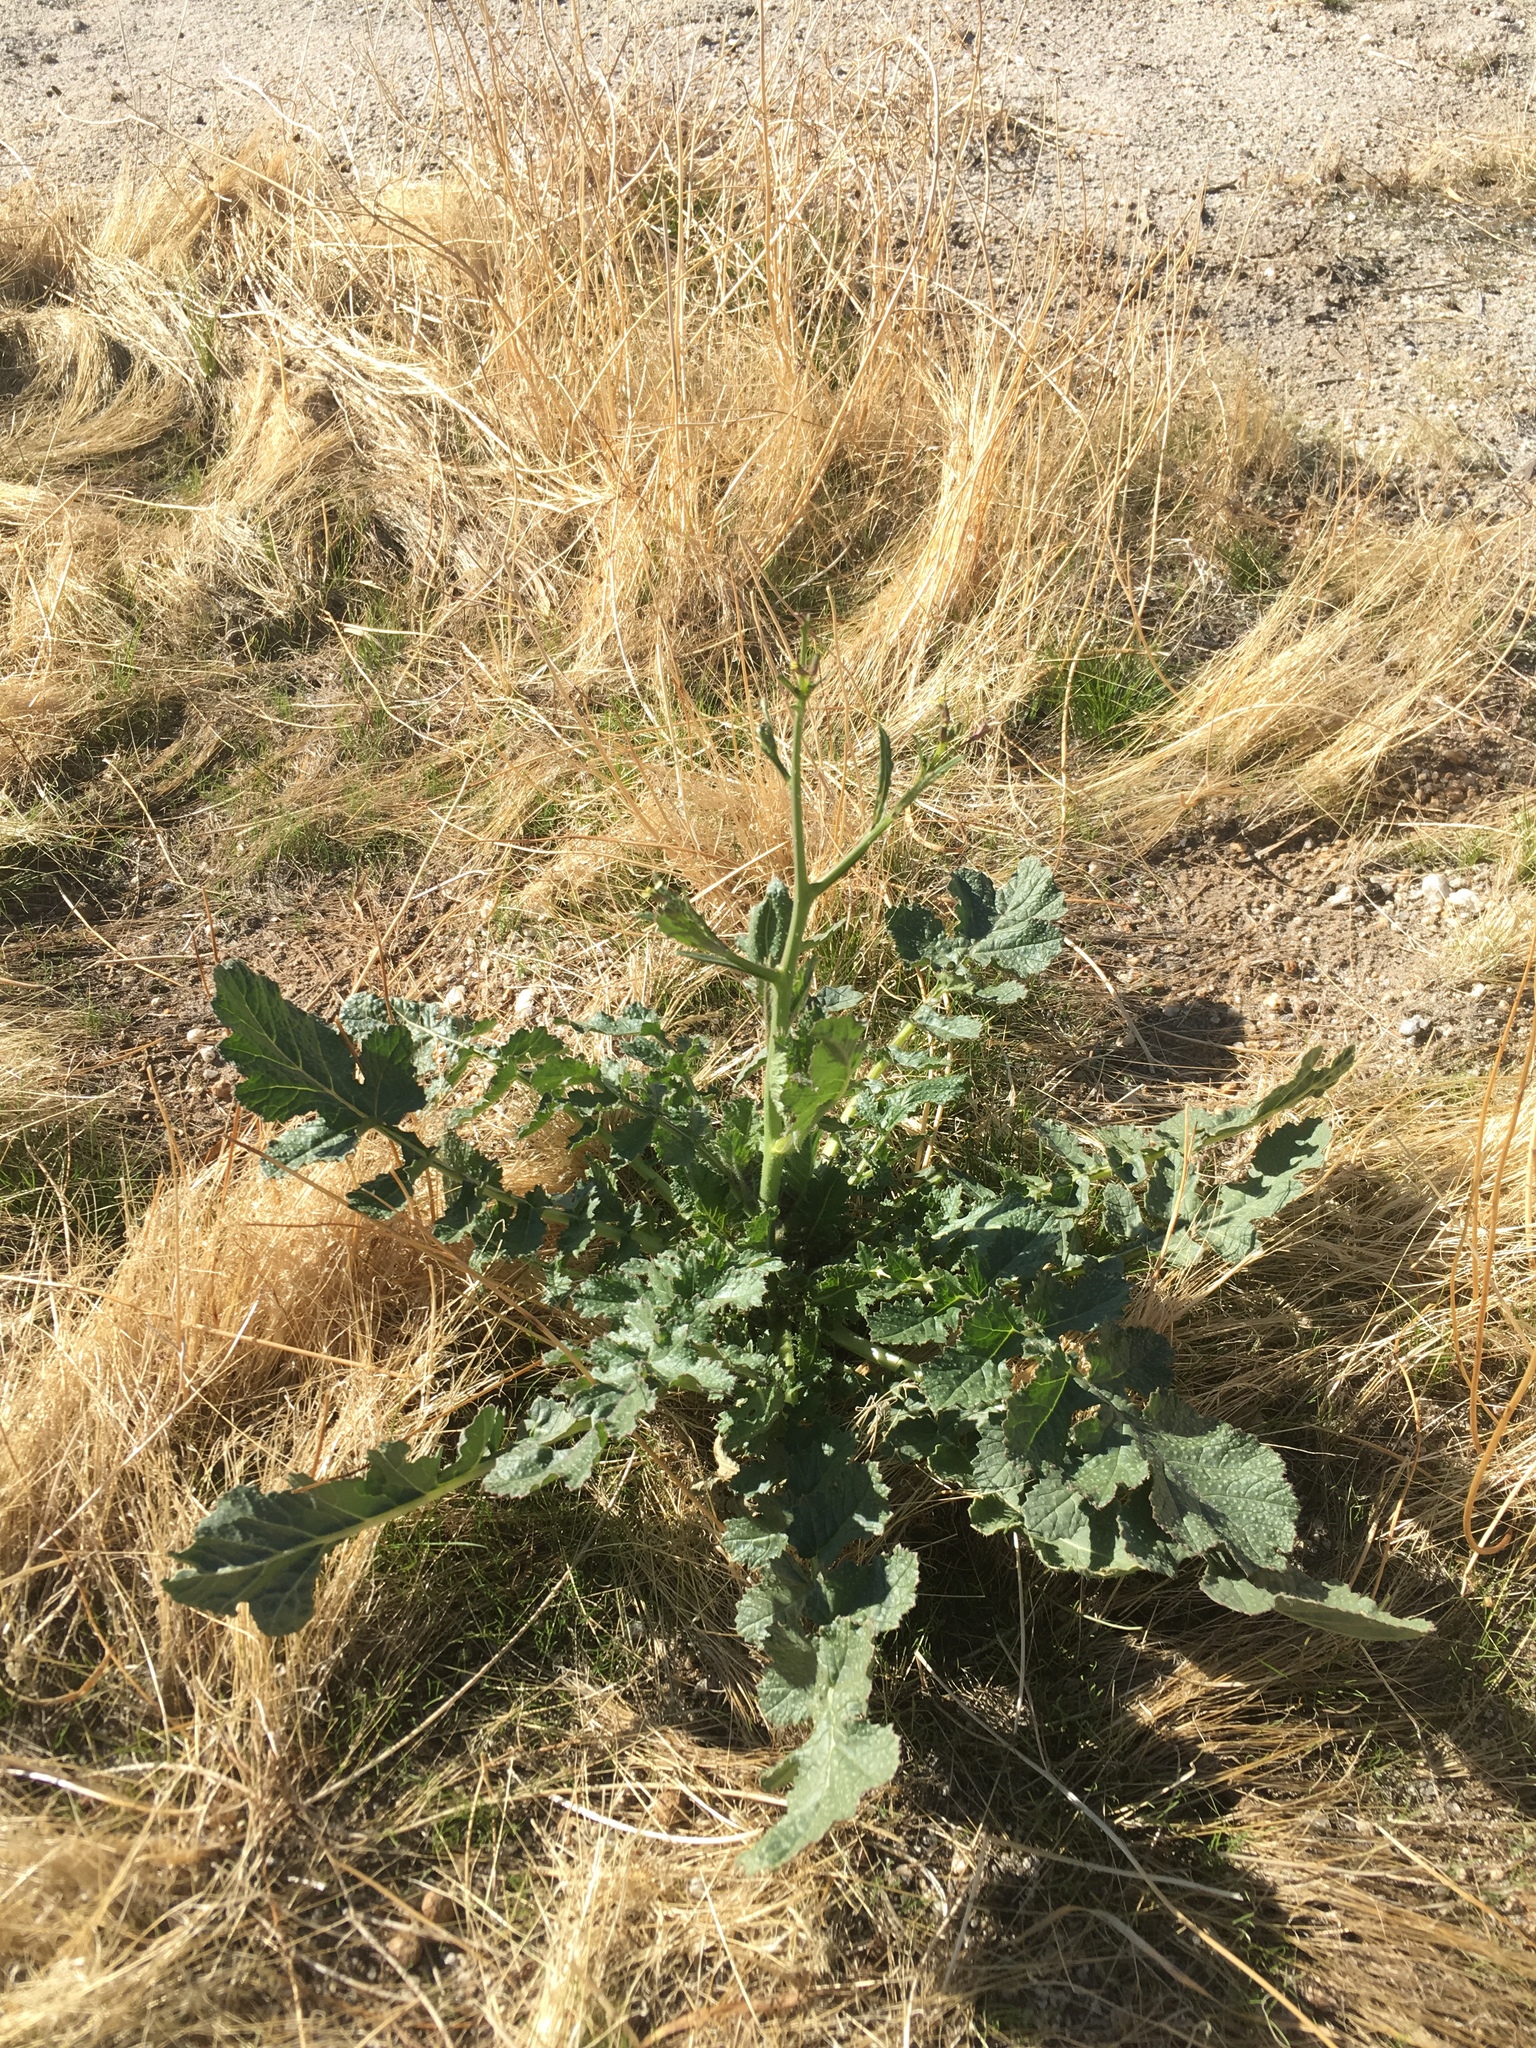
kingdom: Plantae
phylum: Tracheophyta
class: Magnoliopsida
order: Brassicales
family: Brassicaceae
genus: Brassica
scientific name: Brassica tournefortii
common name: Pale cabbage
